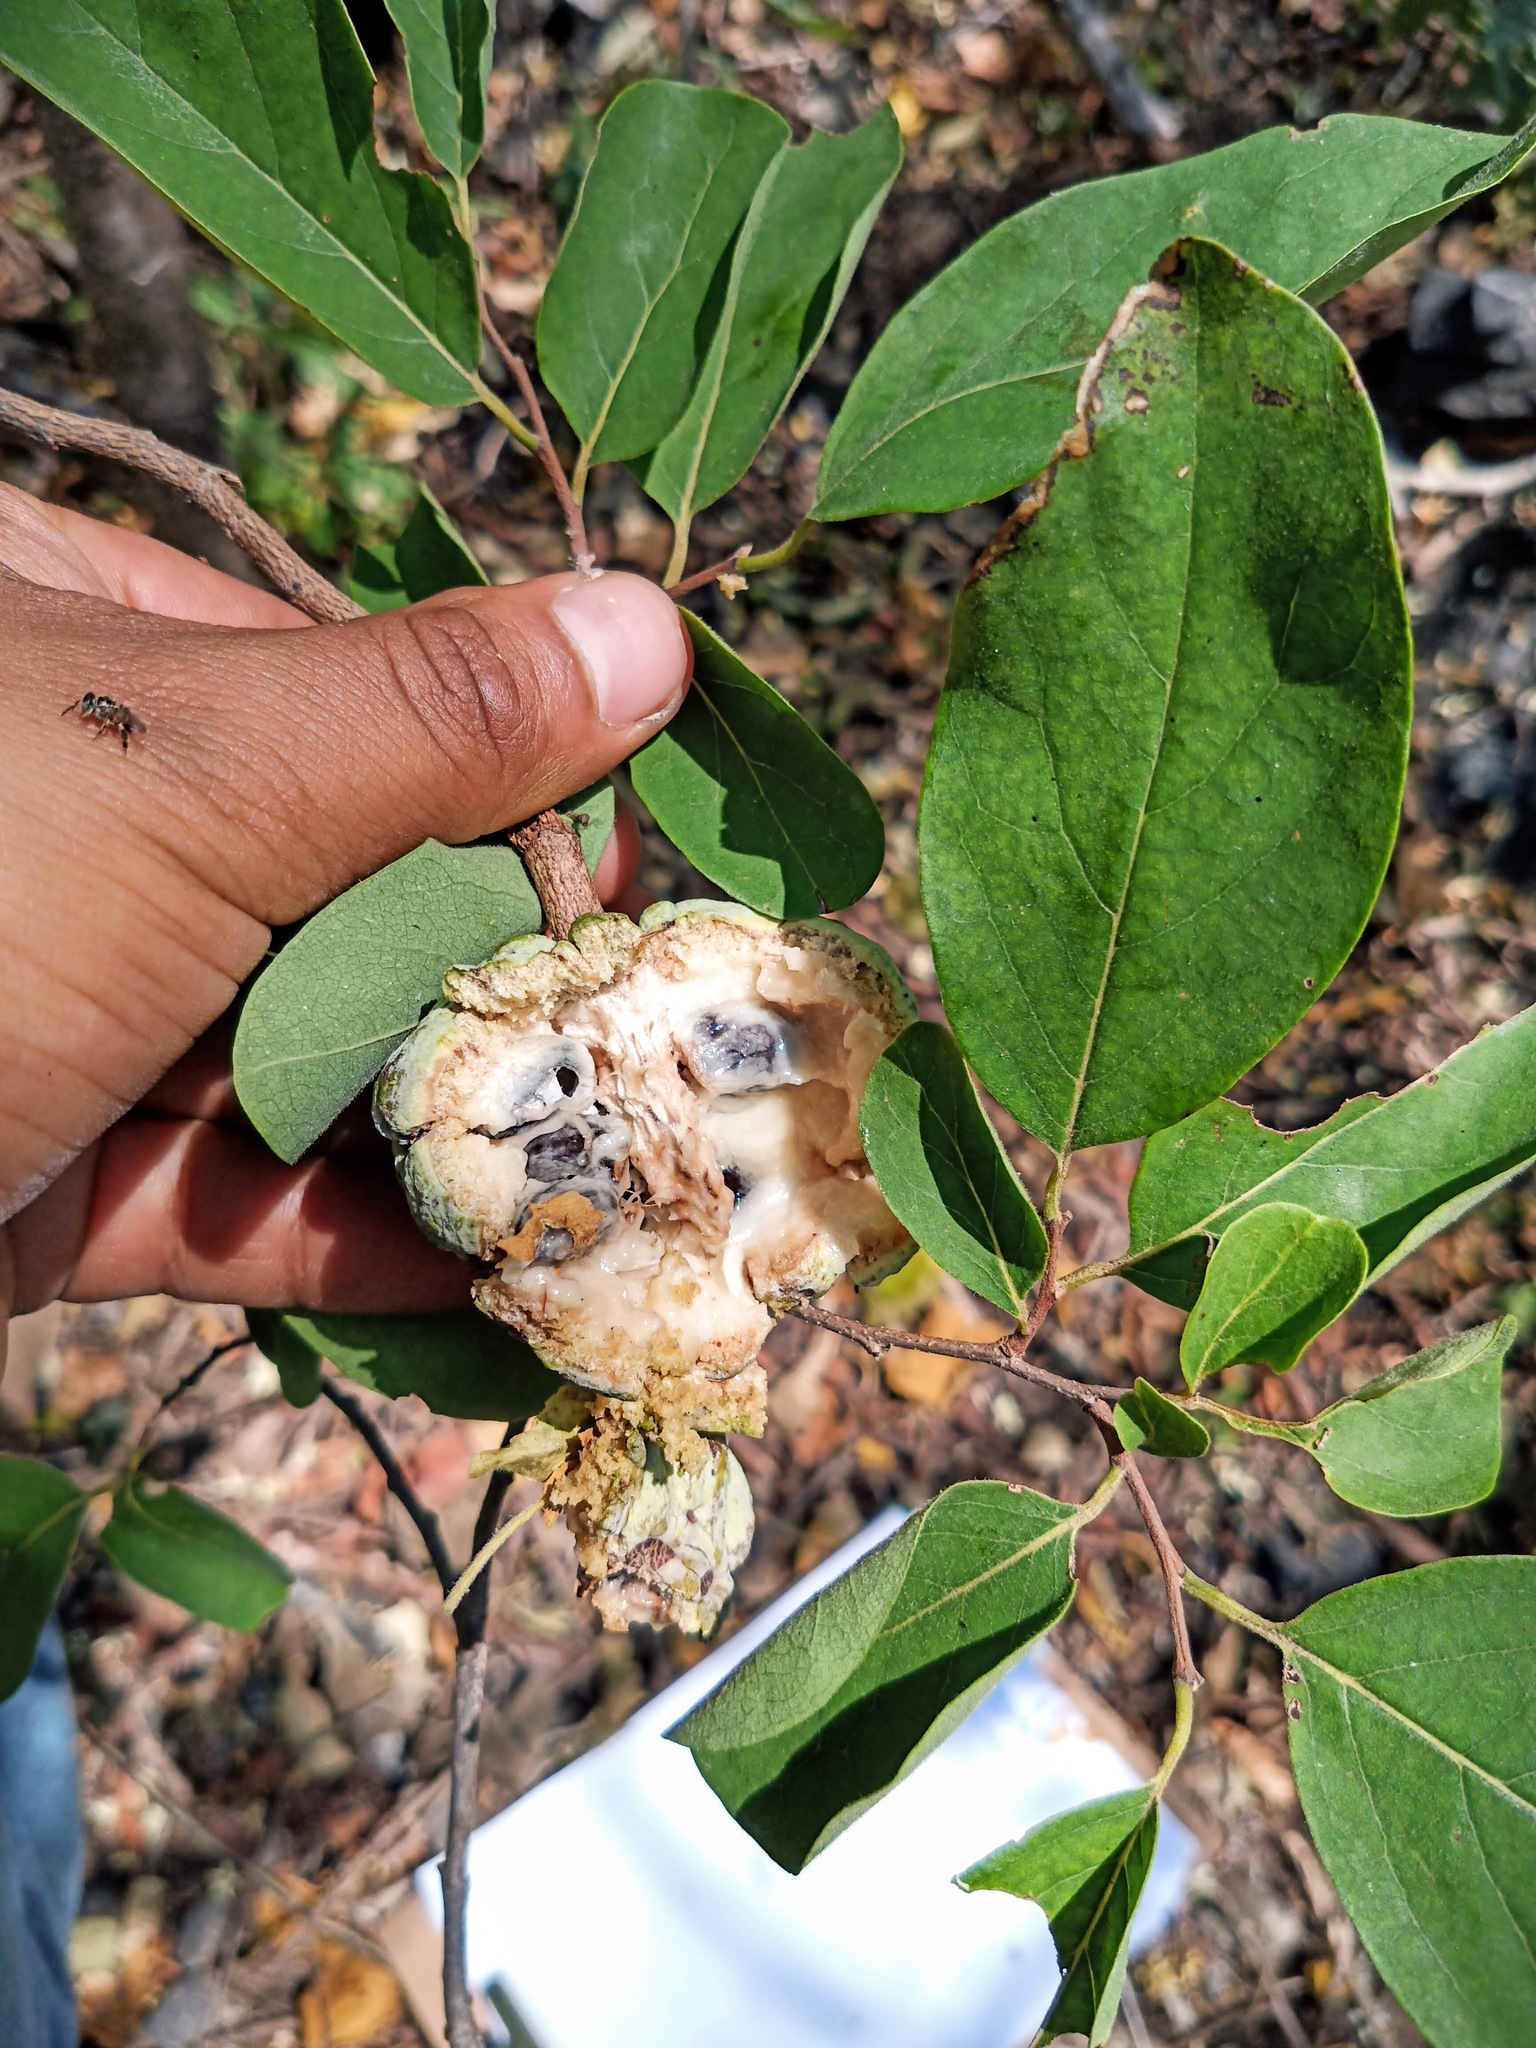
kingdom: Plantae
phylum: Tracheophyta
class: Magnoliopsida
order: Magnoliales
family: Annonaceae
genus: Annona
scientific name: Annona cherimola
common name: Cherimoya
